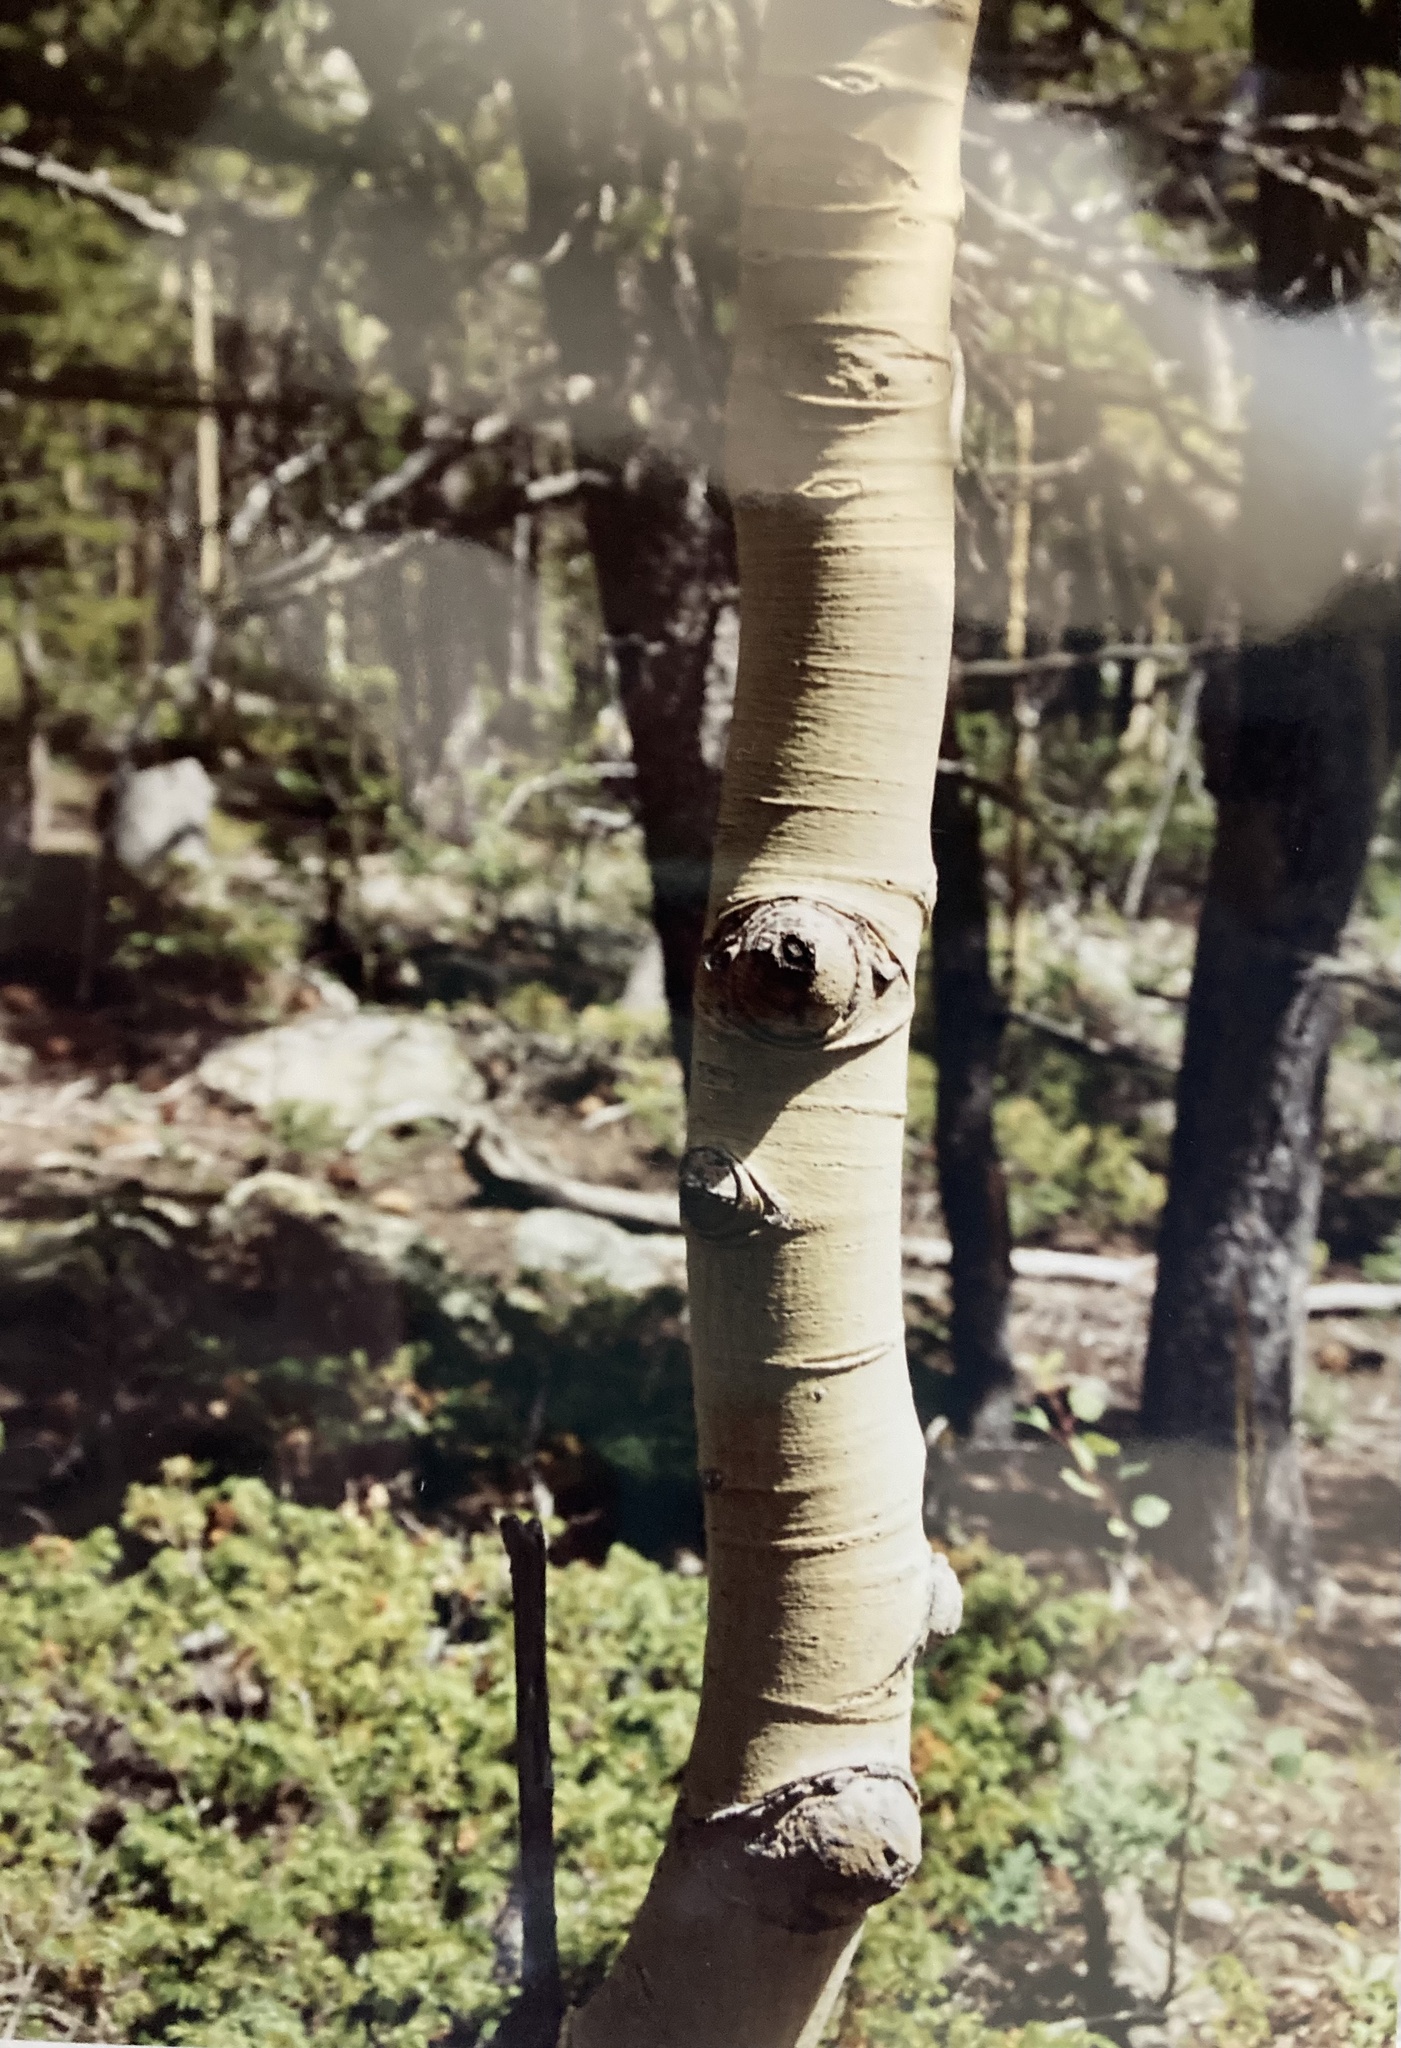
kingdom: Plantae
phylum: Tracheophyta
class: Magnoliopsida
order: Malpighiales
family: Salicaceae
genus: Populus
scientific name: Populus tremuloides
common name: Quaking aspen
